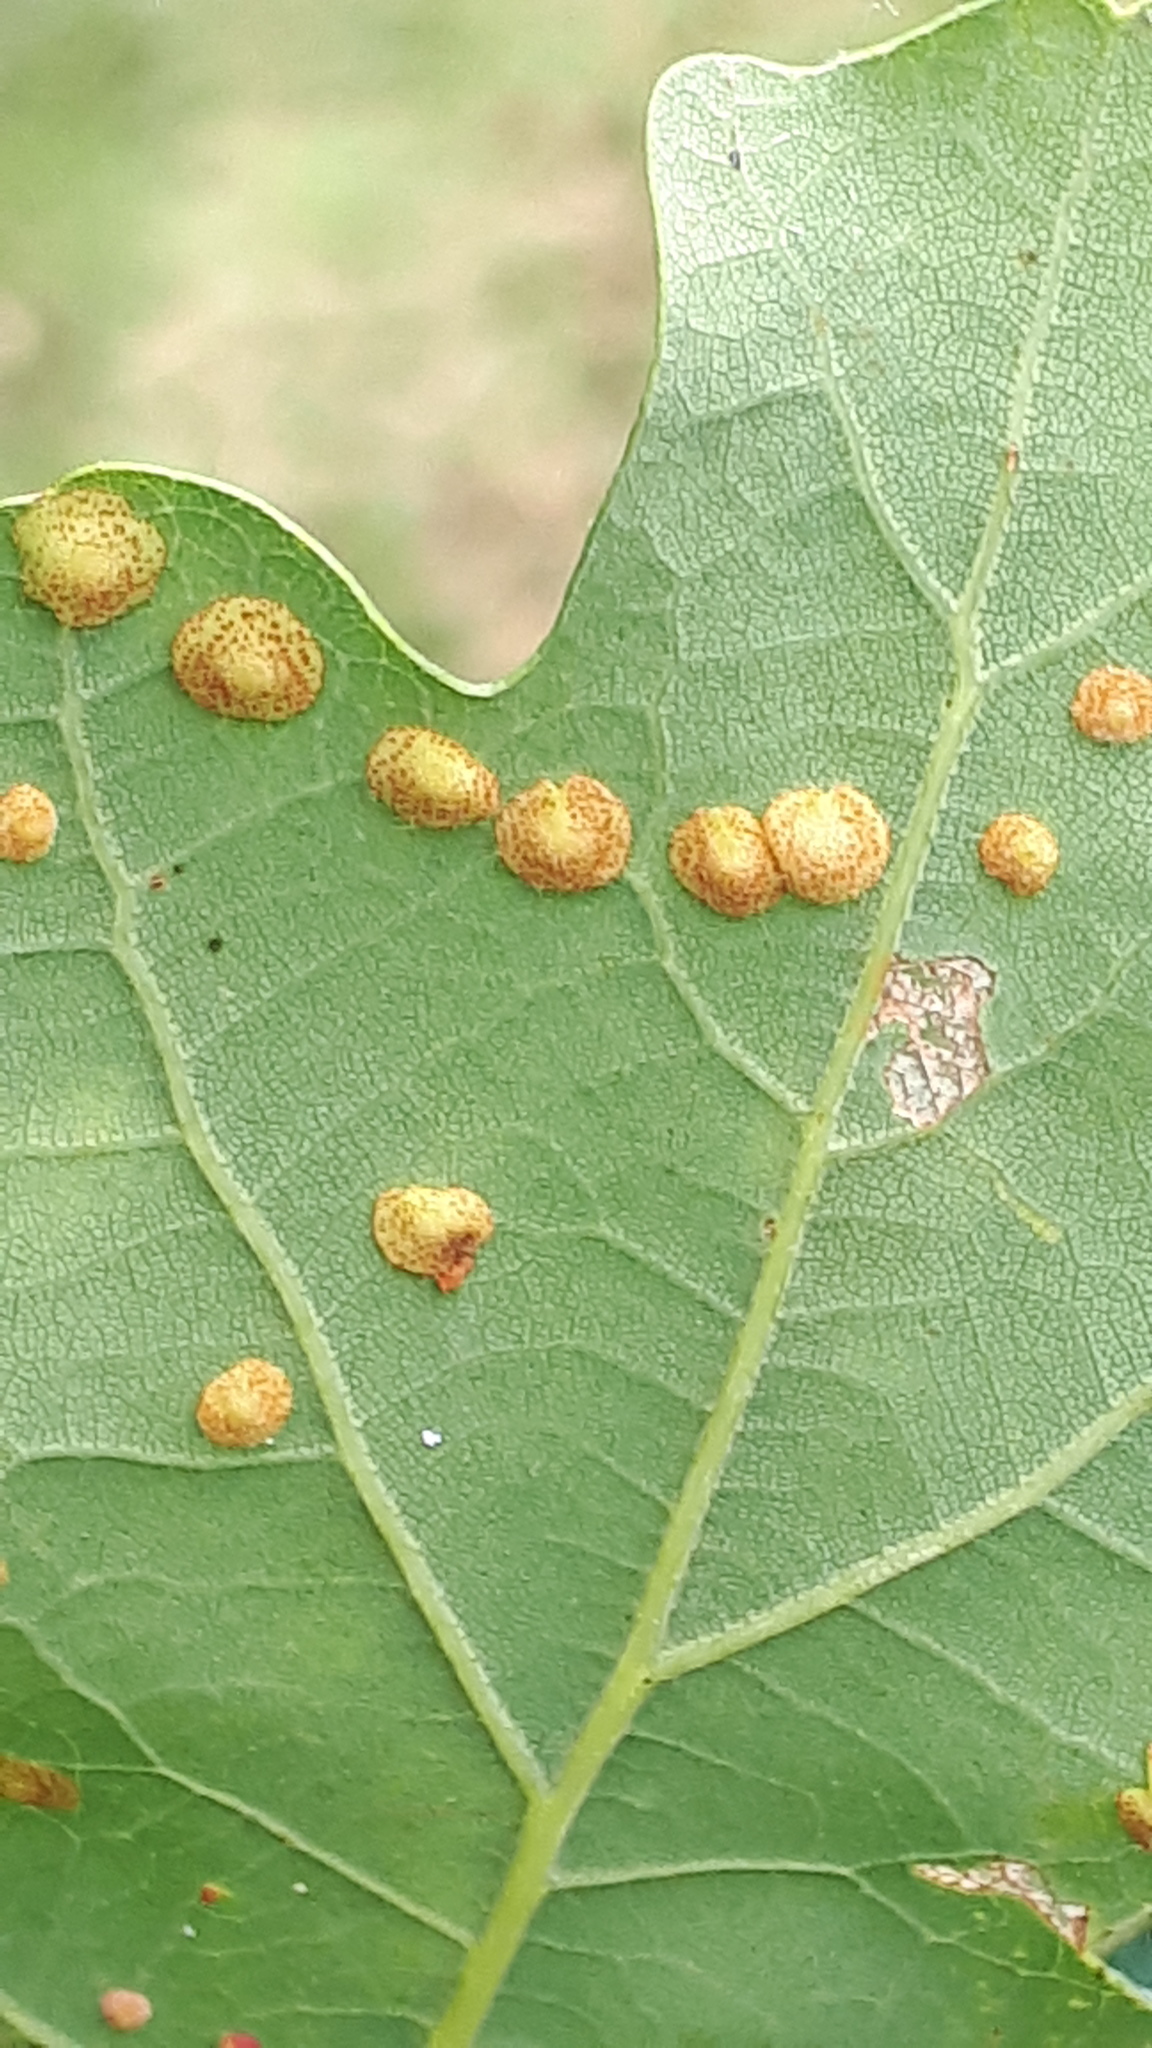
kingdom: Animalia
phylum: Arthropoda
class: Insecta
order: Hymenoptera
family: Cynipidae
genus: Neuroterus
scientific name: Neuroterus quercusbaccarum
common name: Common spangle gall
